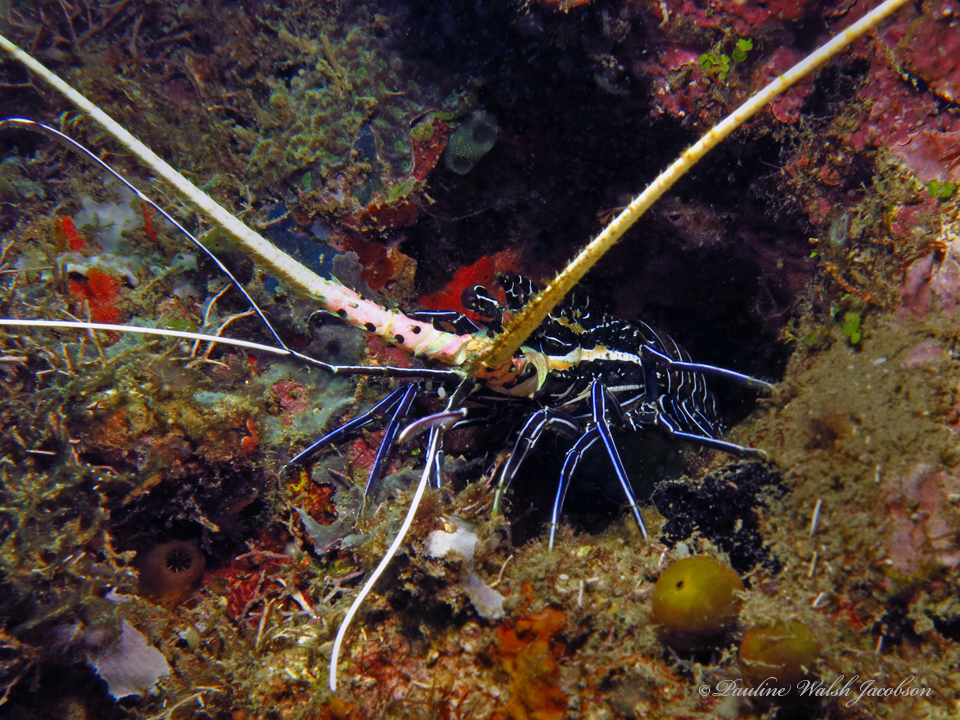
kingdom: Animalia
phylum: Arthropoda
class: Malacostraca
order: Decapoda
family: Palinuridae
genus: Panulirus
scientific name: Panulirus versicolor
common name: Painted spiny lobster
